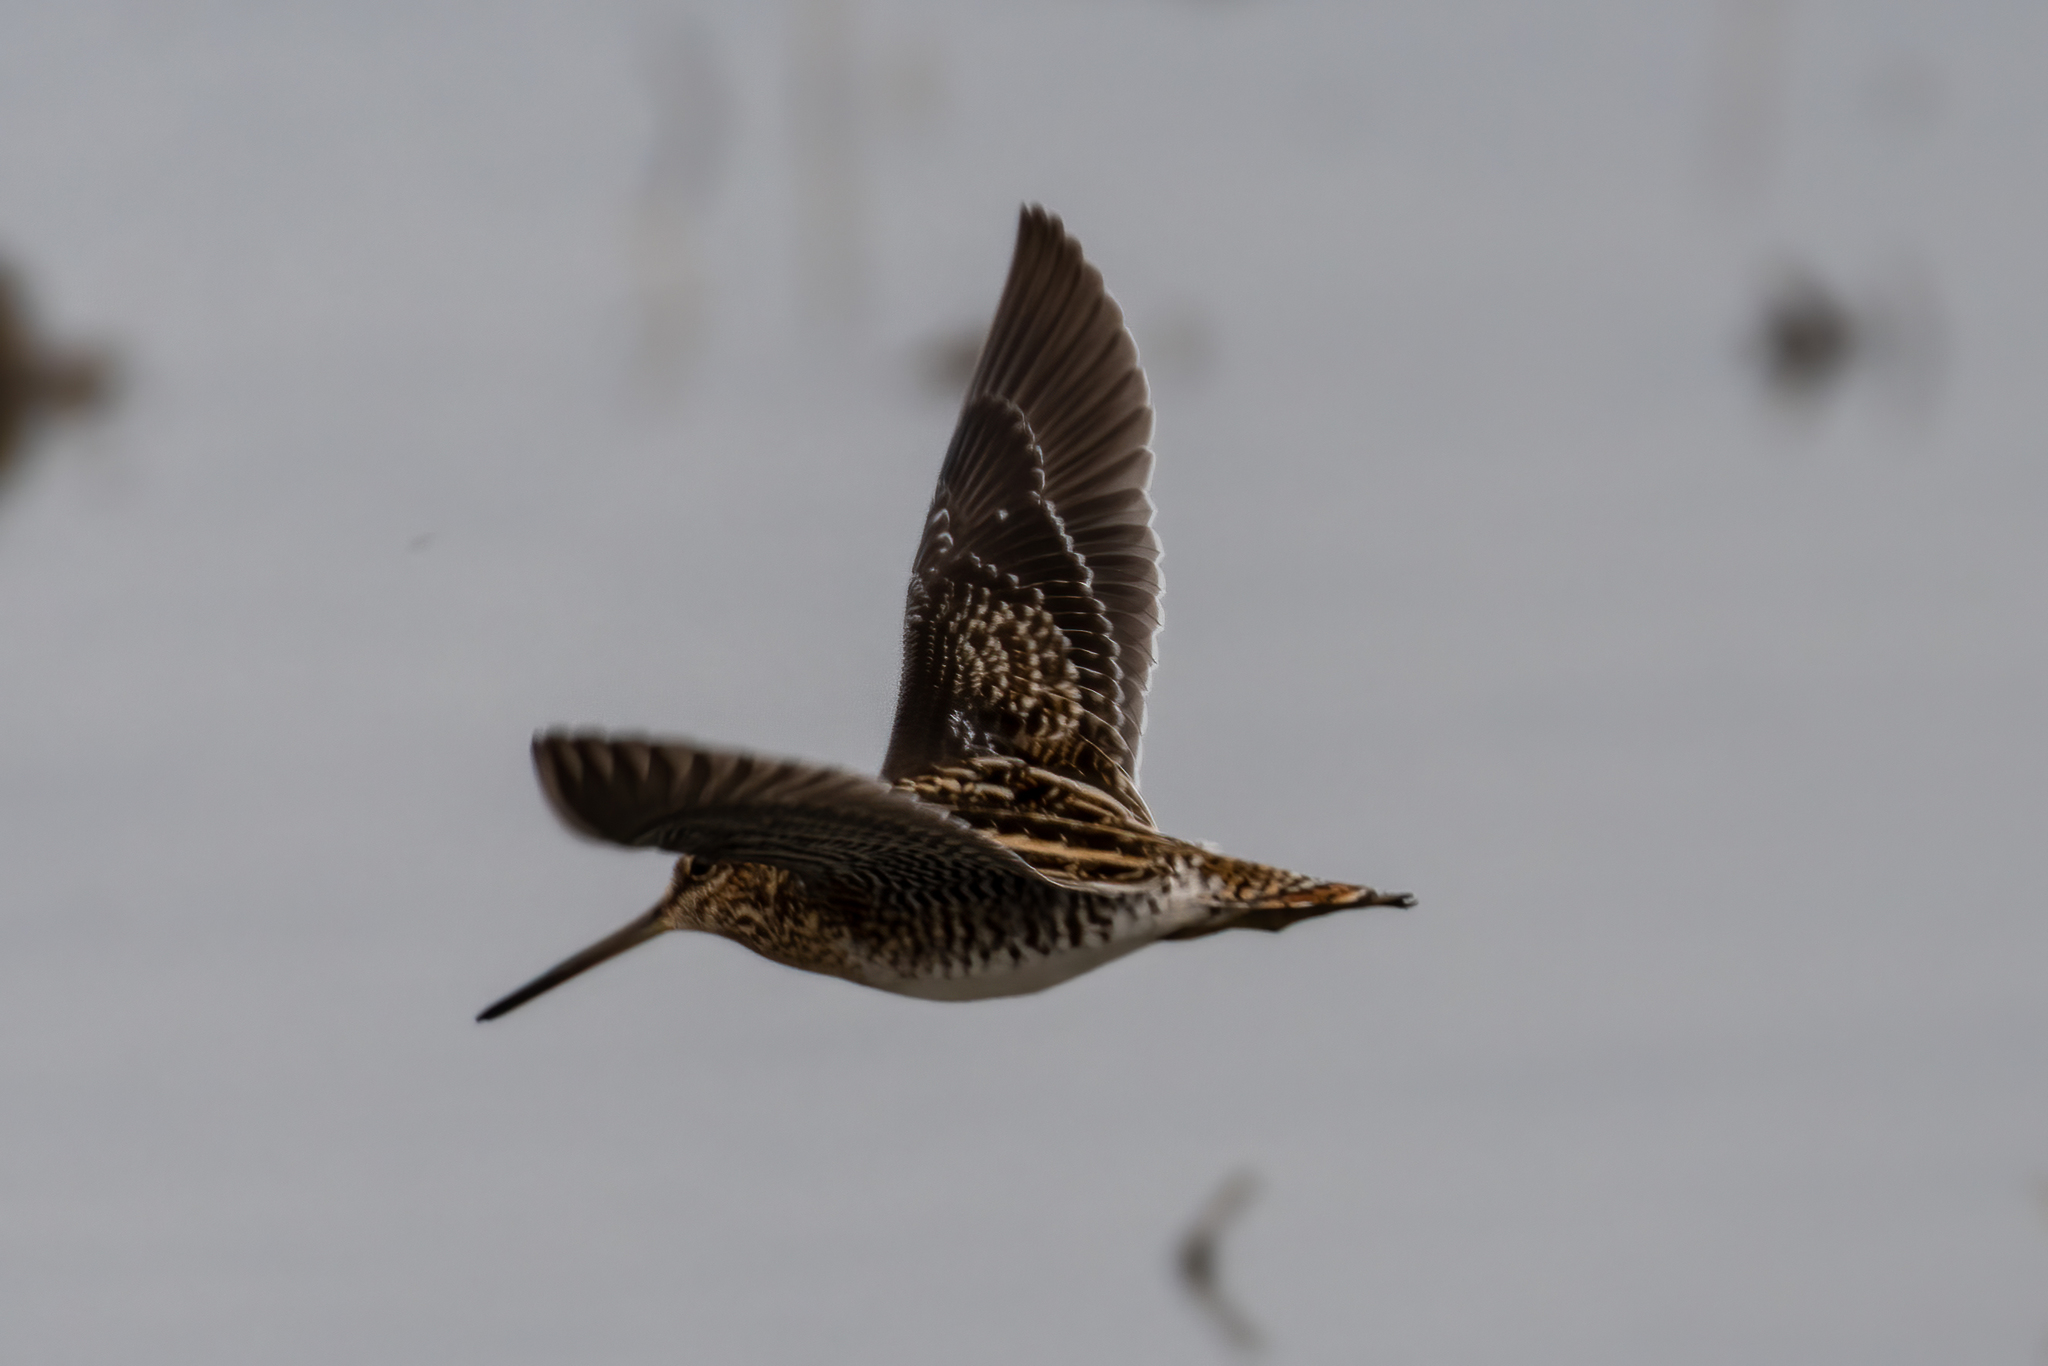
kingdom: Animalia
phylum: Chordata
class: Aves
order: Charadriiformes
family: Scolopacidae
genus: Gallinago
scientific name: Gallinago delicata
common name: Wilson's snipe
